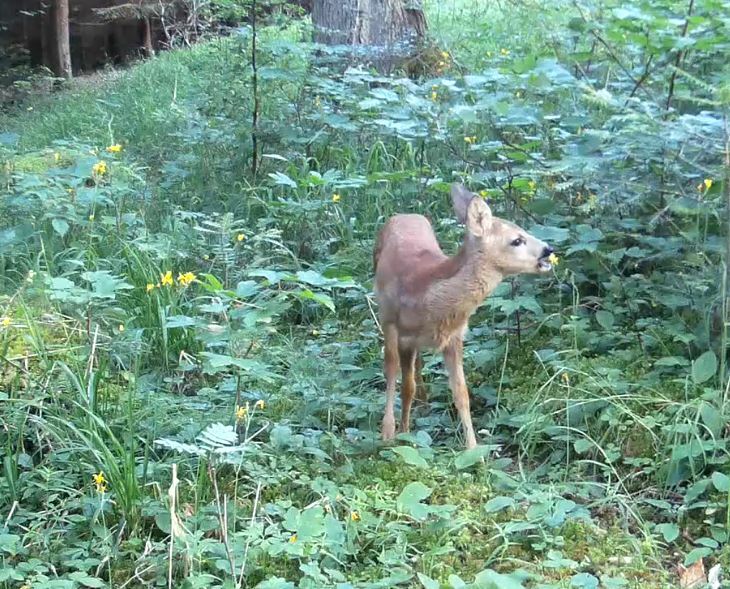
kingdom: Animalia
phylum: Chordata
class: Mammalia
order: Artiodactyla
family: Cervidae
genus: Capreolus
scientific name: Capreolus capreolus
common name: Western roe deer
